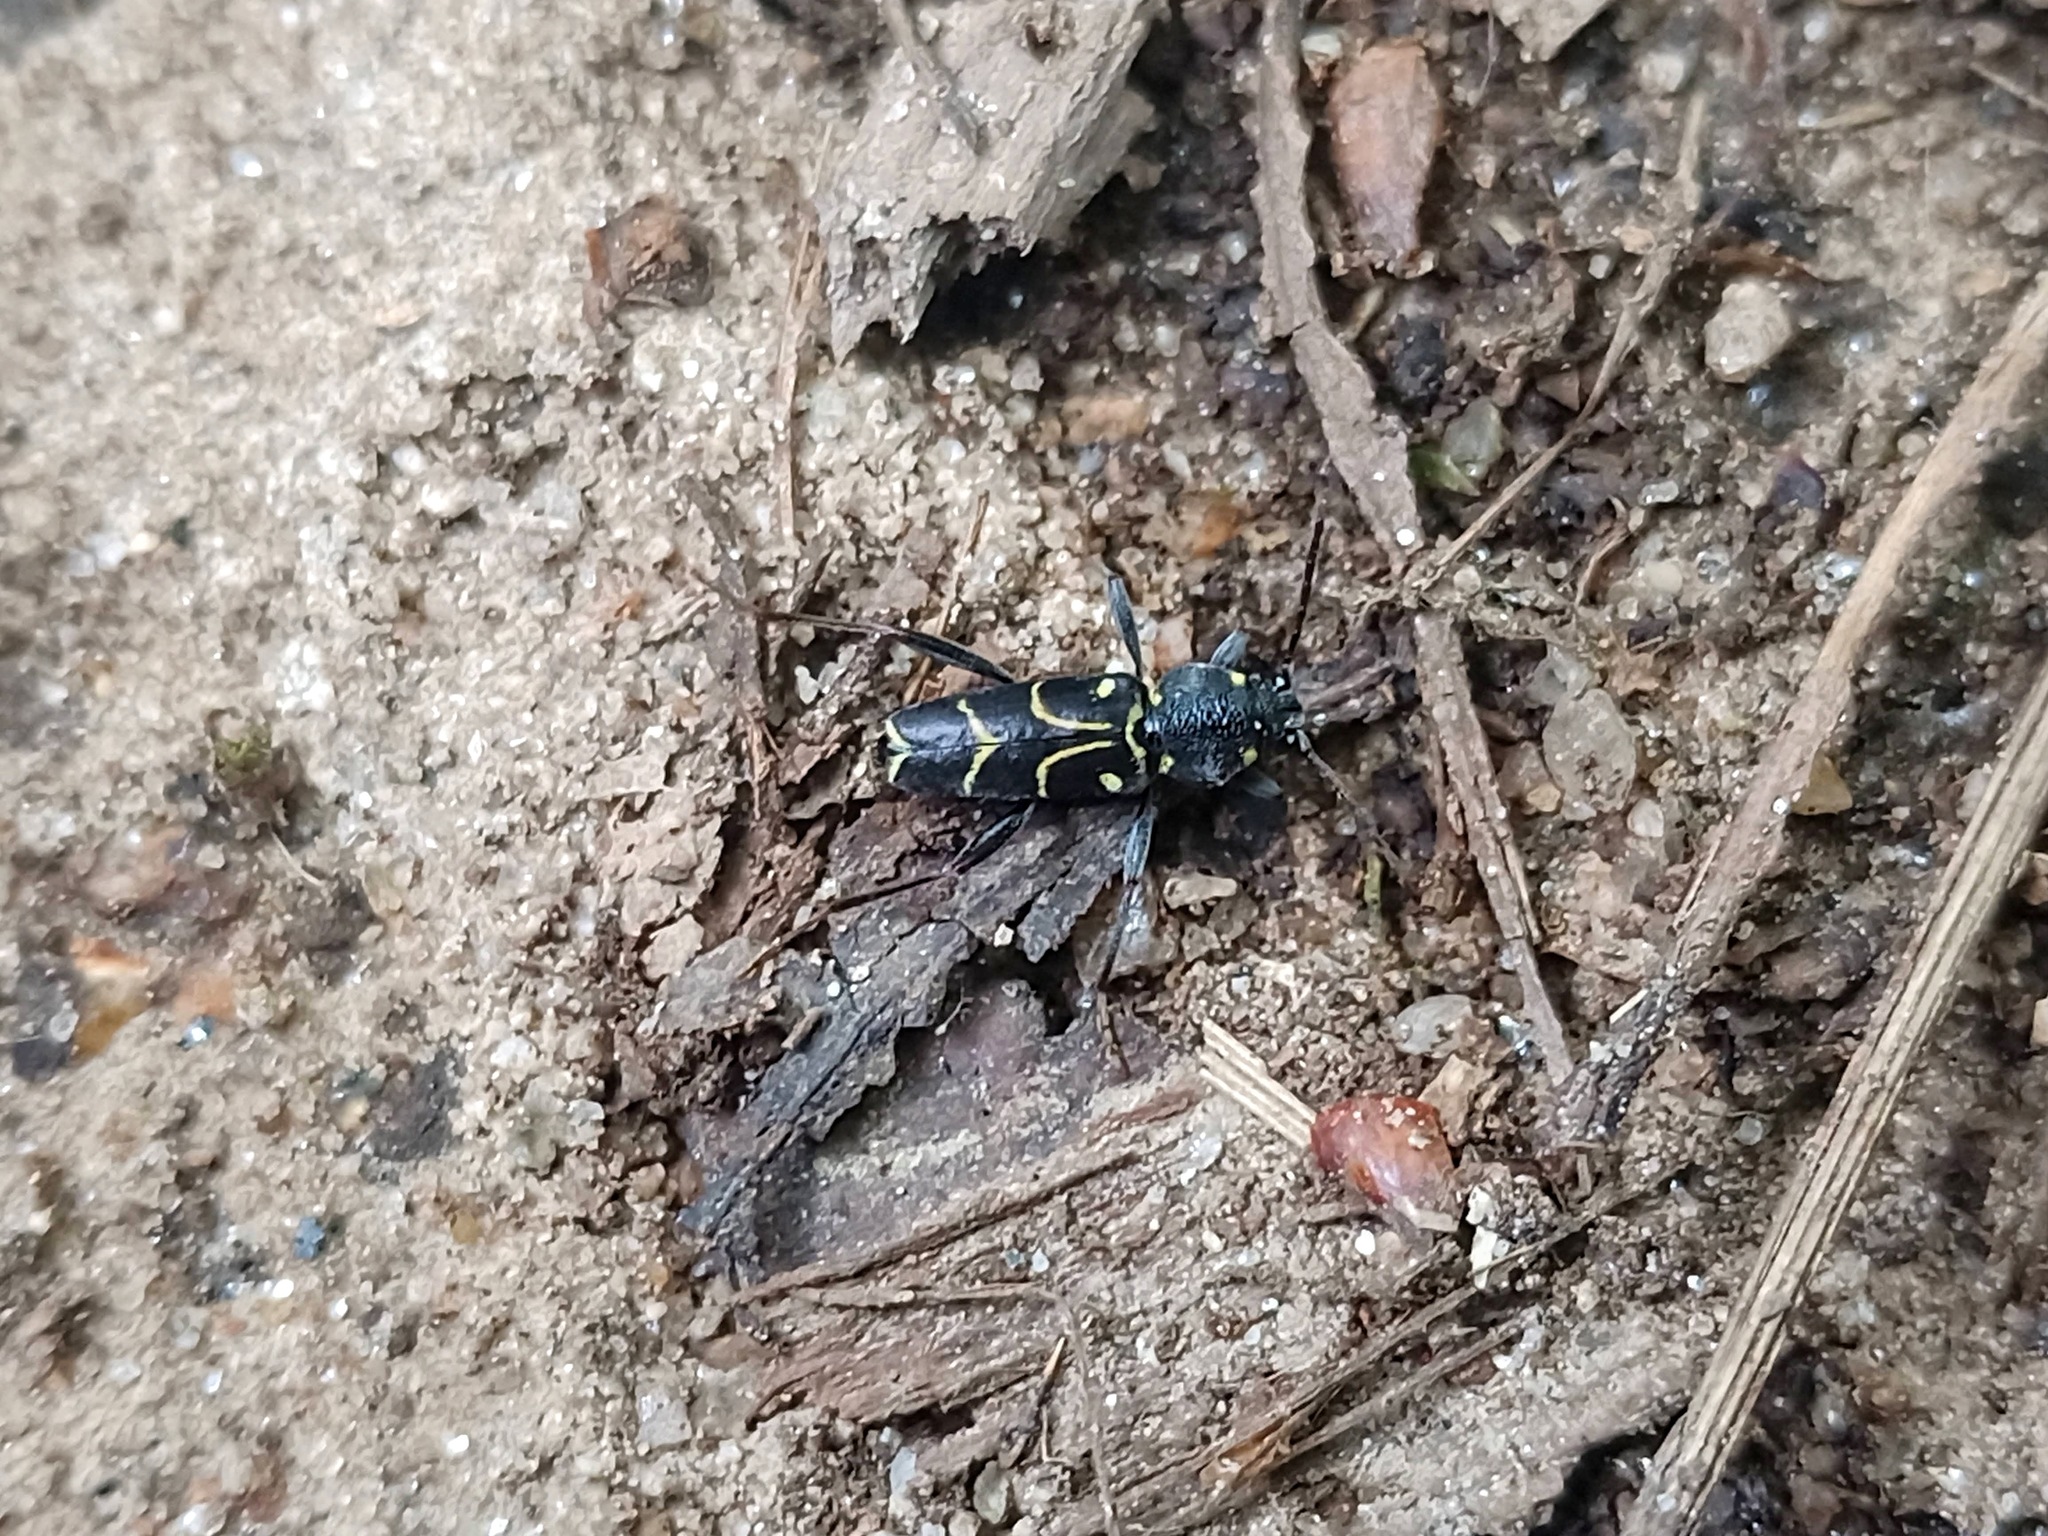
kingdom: Animalia
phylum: Arthropoda
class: Insecta
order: Coleoptera
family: Cerambycidae
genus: Xylotrechus
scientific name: Xylotrechus antilope
